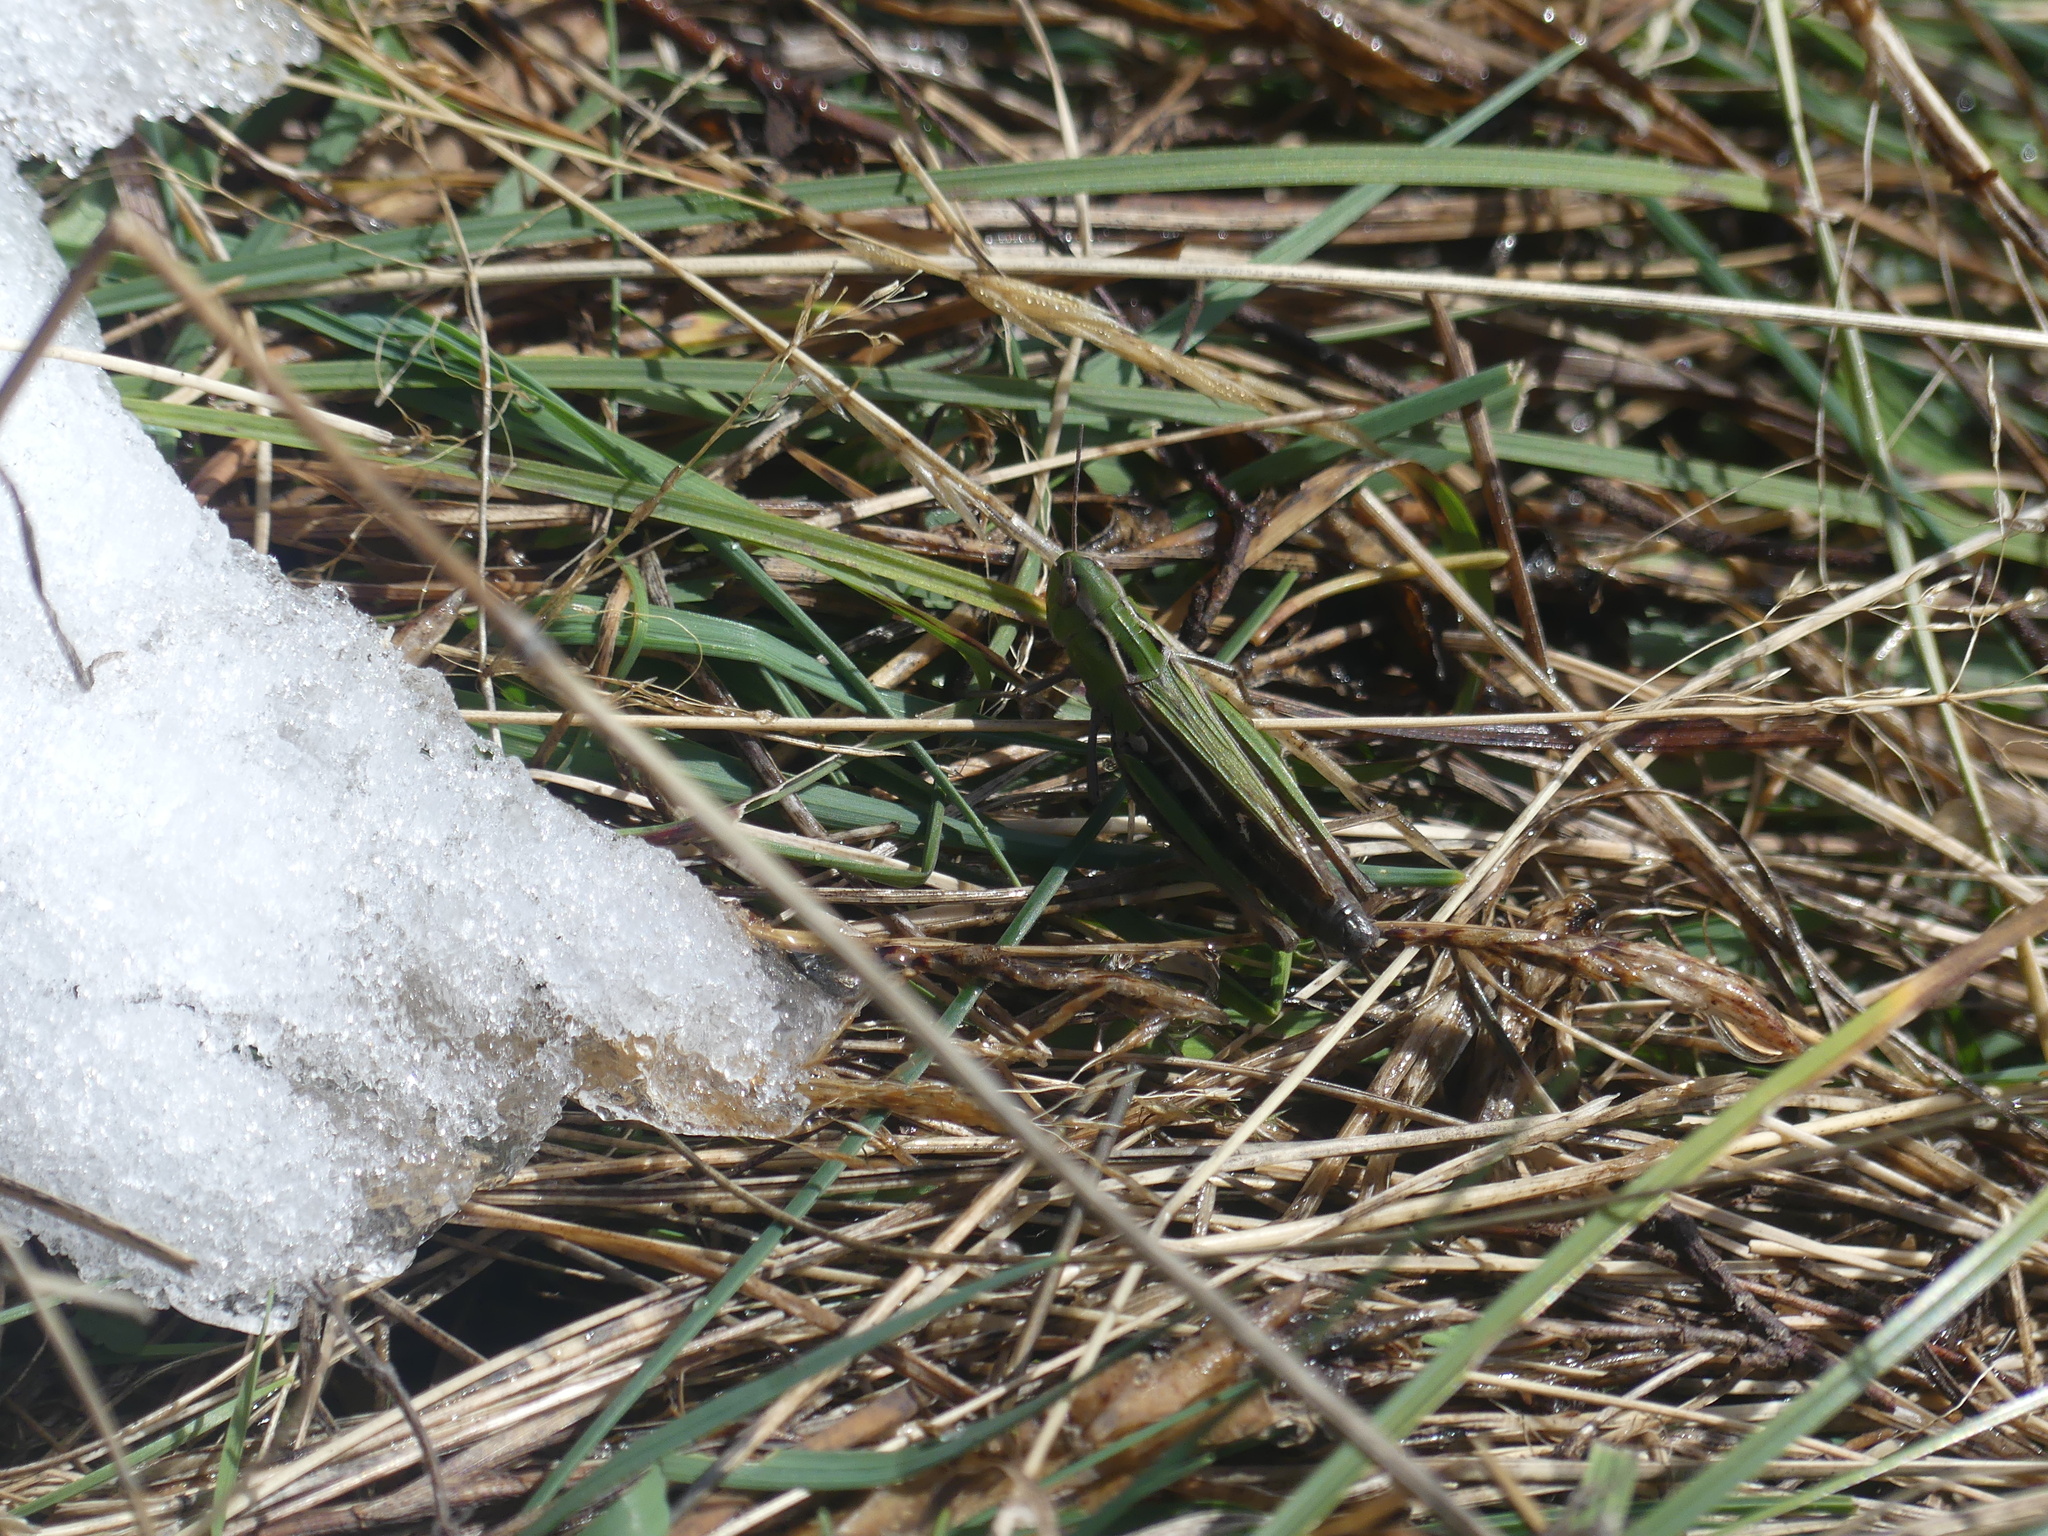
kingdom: Animalia
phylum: Arthropoda
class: Insecta
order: Orthoptera
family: Acrididae
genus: Stenobothrus
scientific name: Stenobothrus lineatus
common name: Stripe-winged grasshopper
